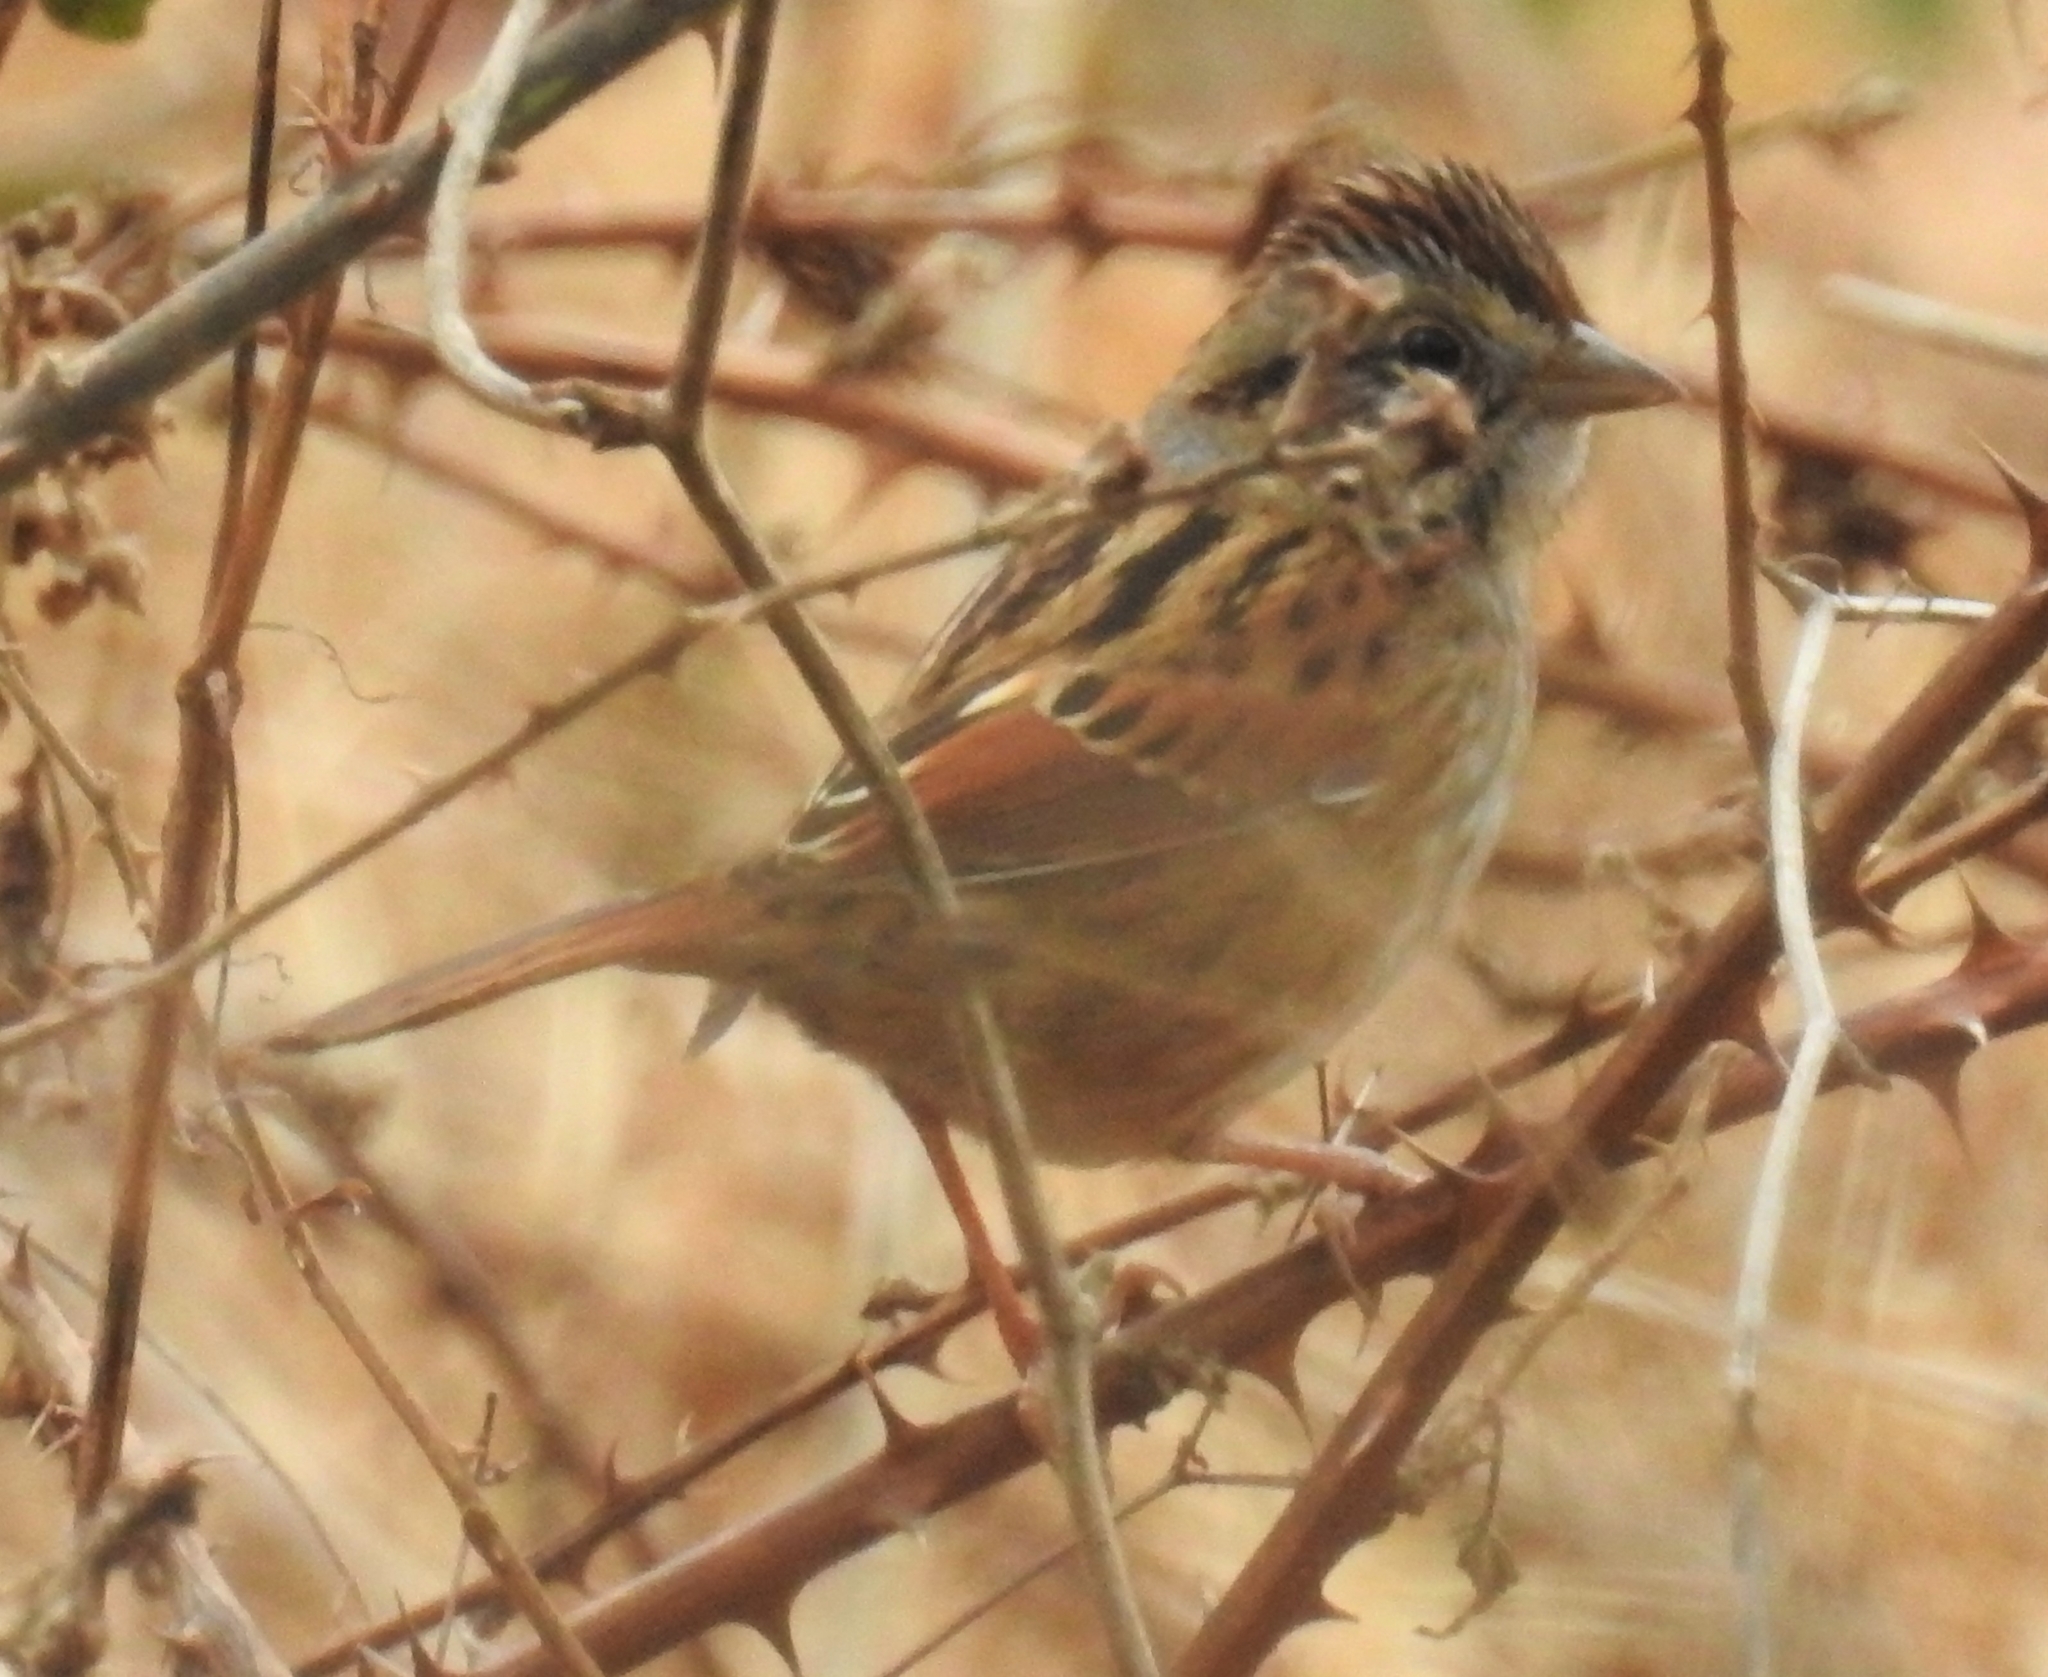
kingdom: Animalia
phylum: Chordata
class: Aves
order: Passeriformes
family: Passerellidae
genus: Melospiza
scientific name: Melospiza georgiana
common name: Swamp sparrow
